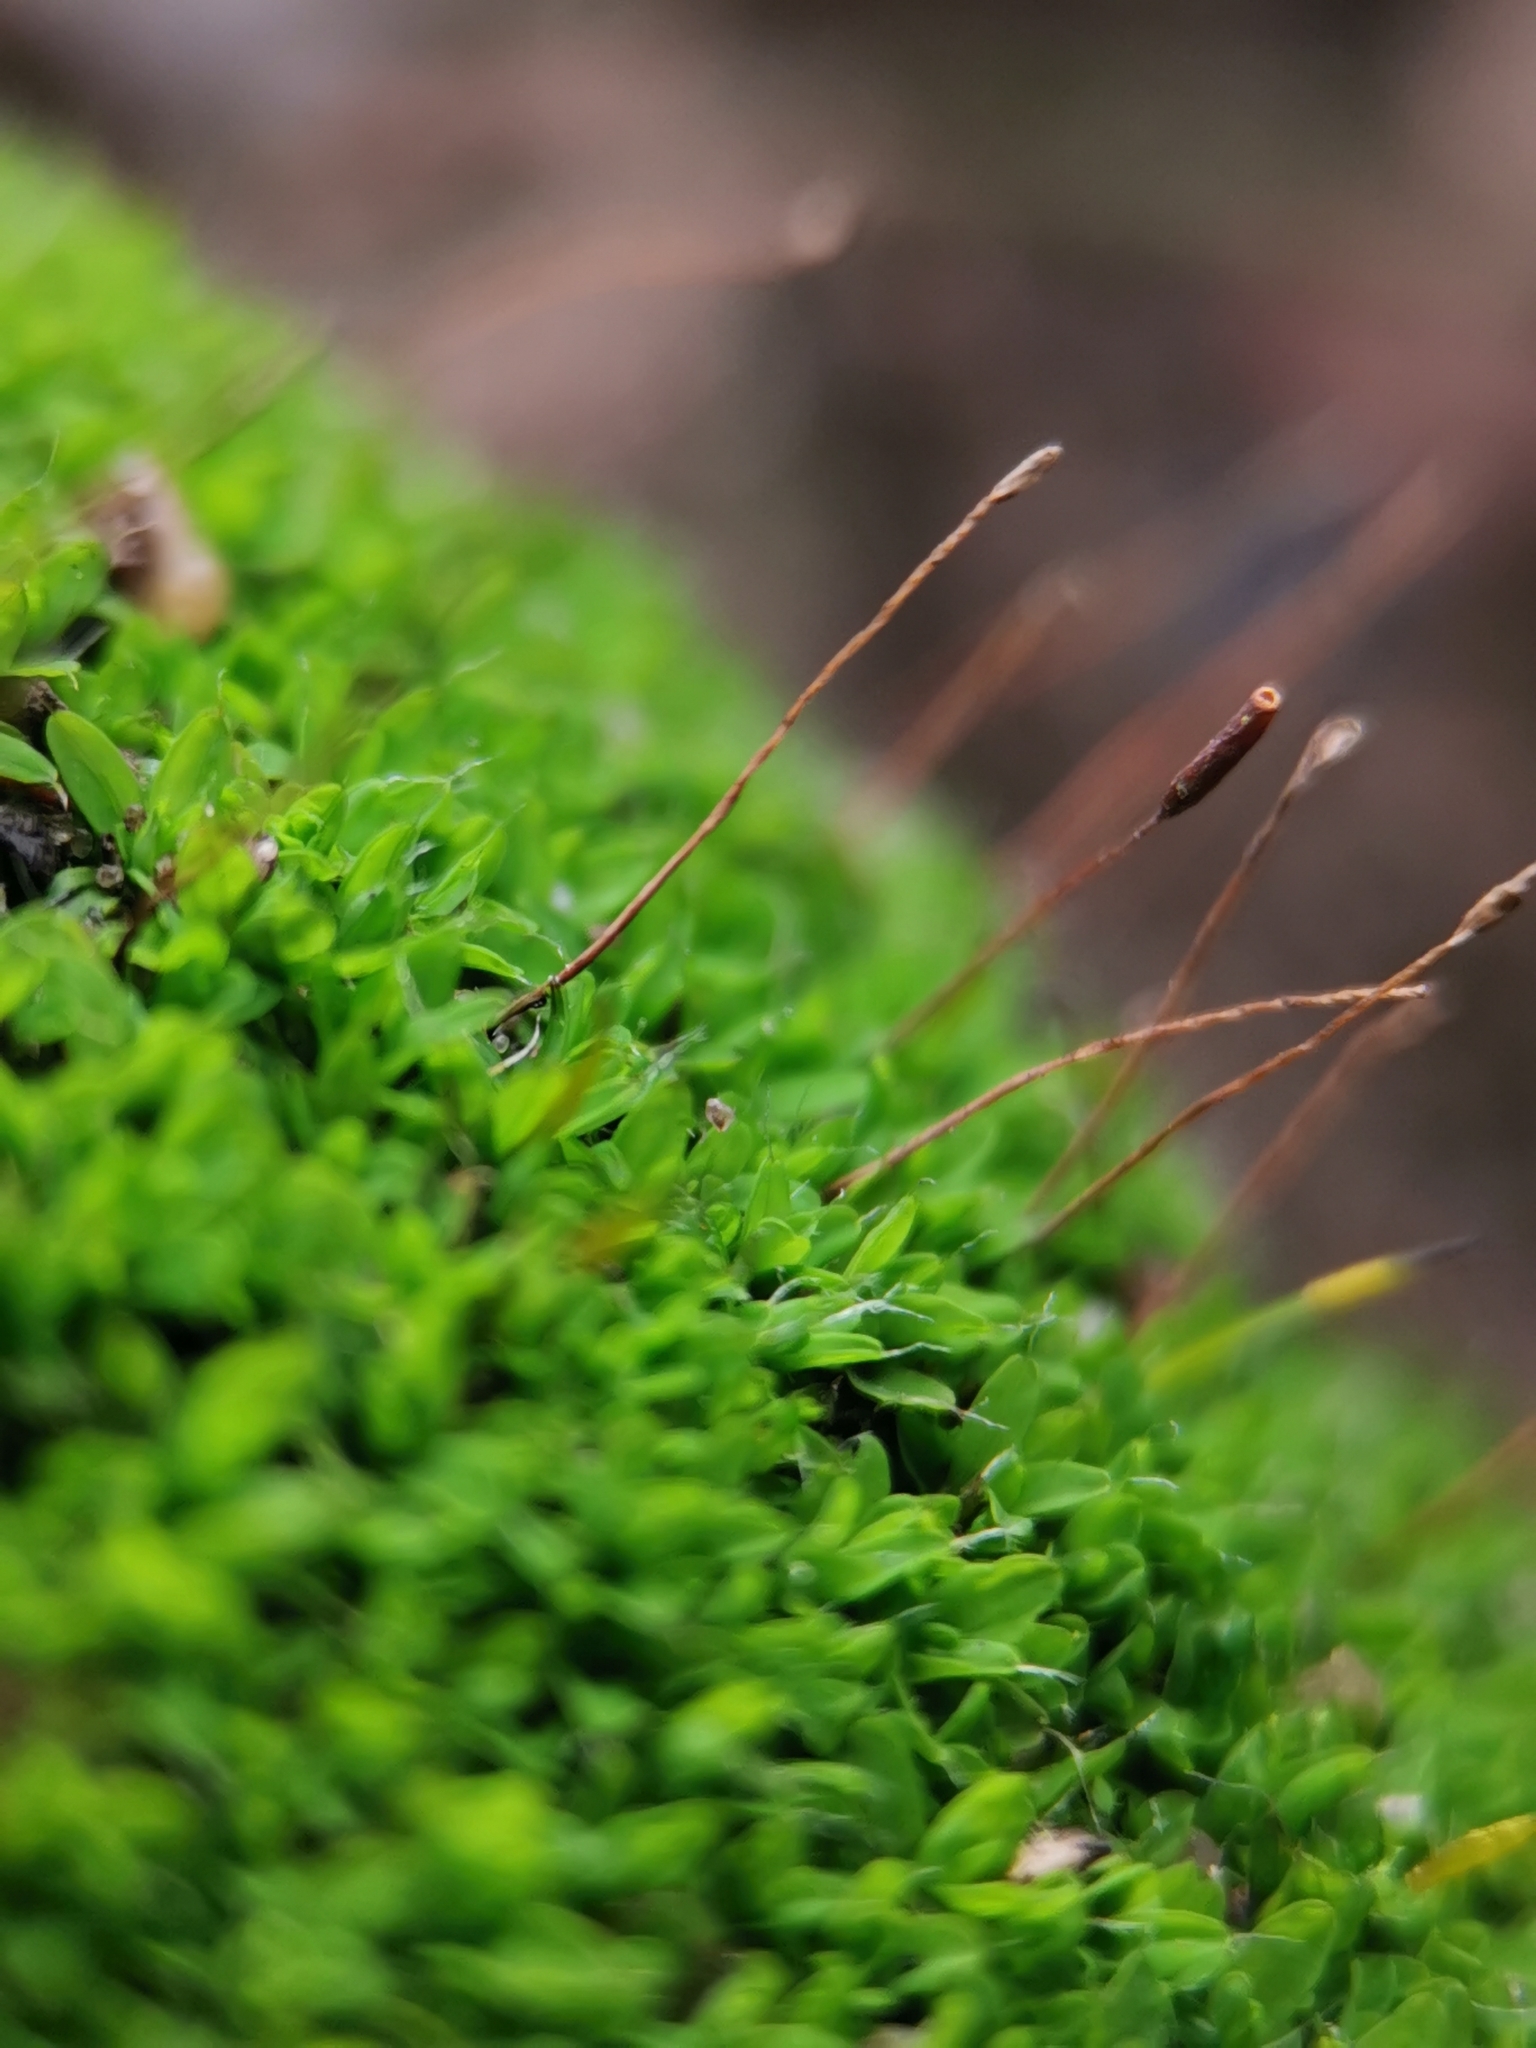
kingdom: Plantae
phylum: Bryophyta
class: Bryopsida
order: Pottiales
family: Pottiaceae
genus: Tortula
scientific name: Tortula muralis
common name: Wall screw-moss
